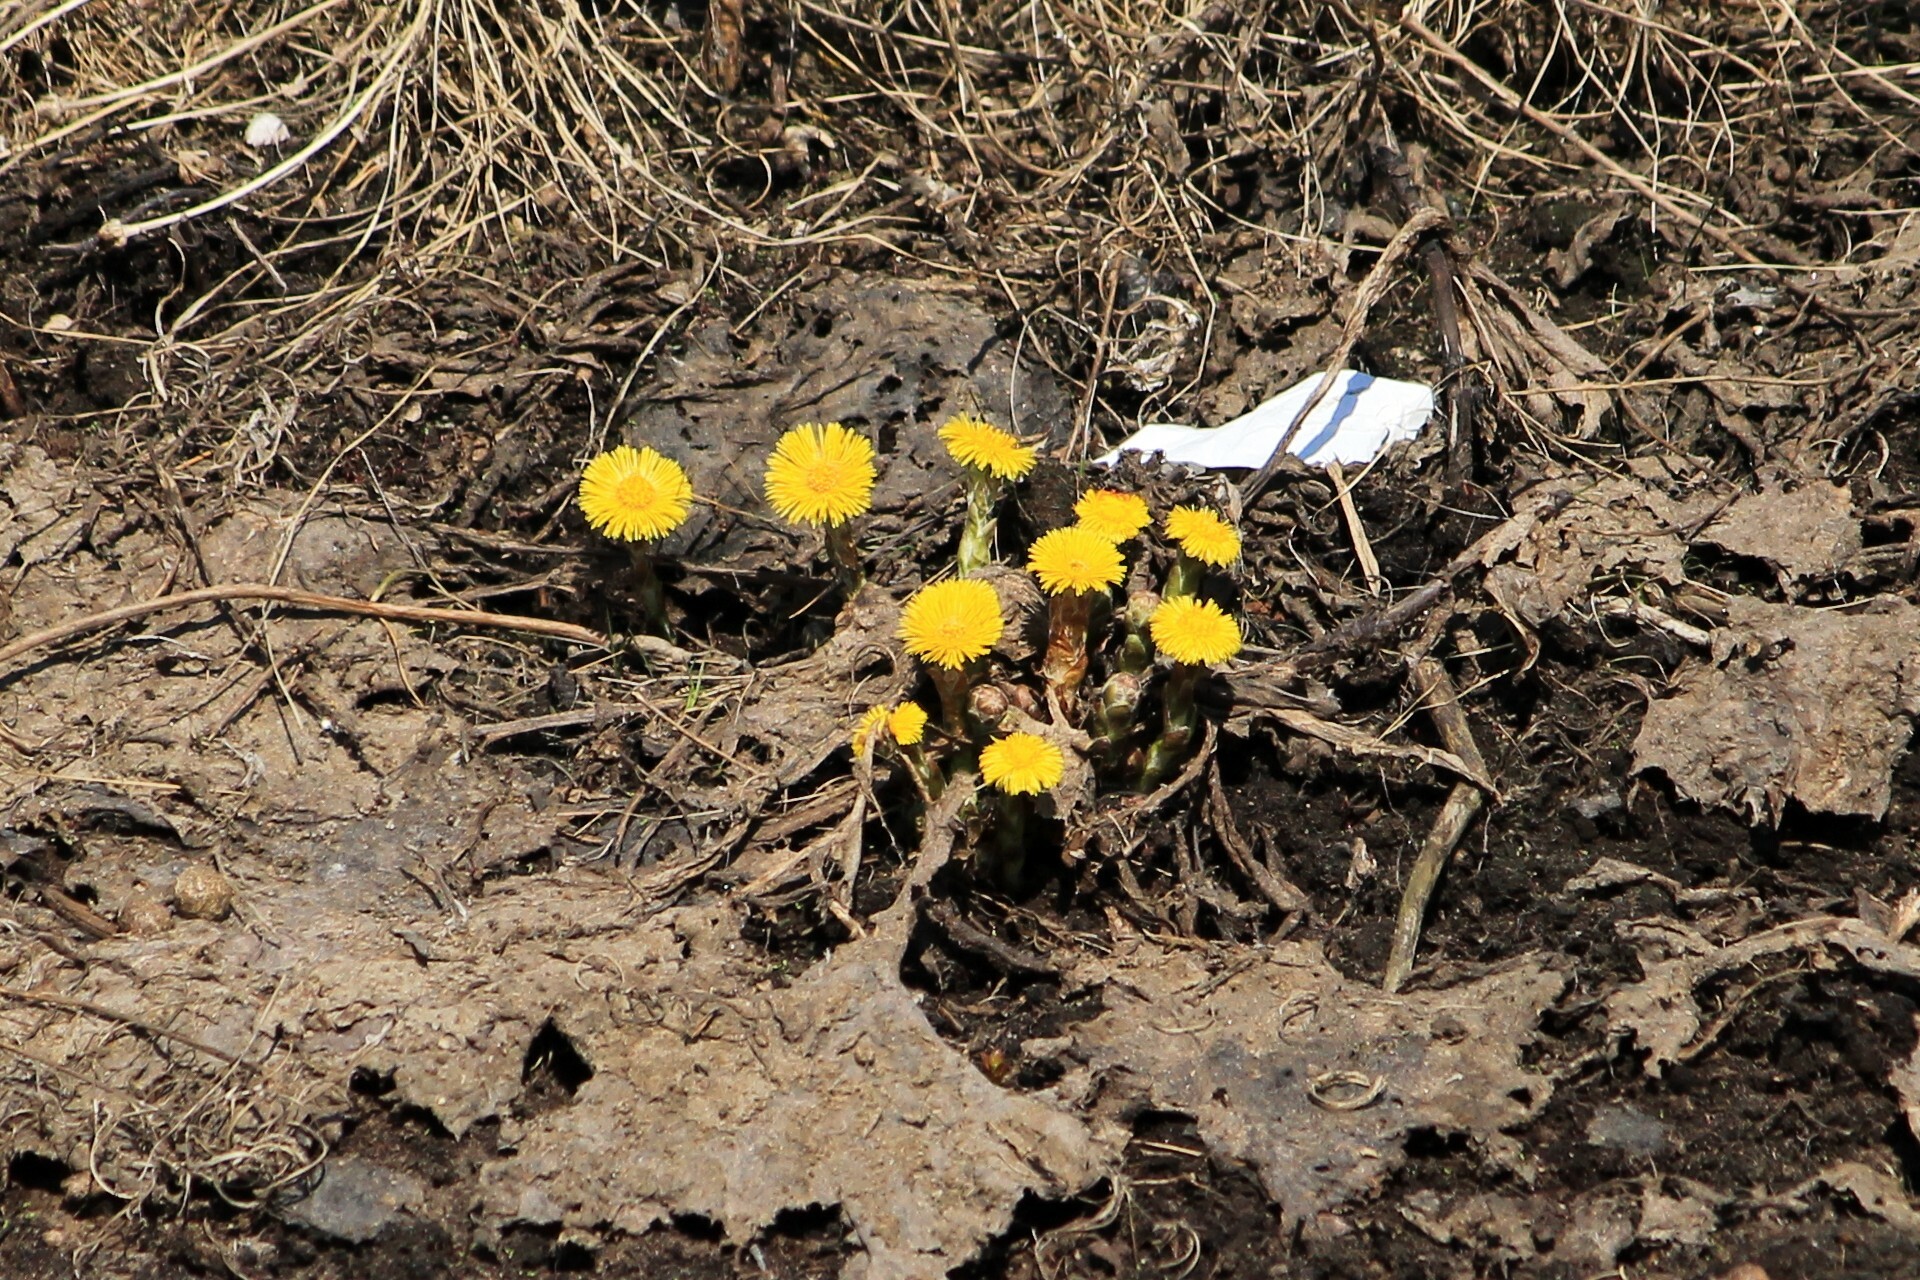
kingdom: Plantae
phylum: Tracheophyta
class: Magnoliopsida
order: Asterales
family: Asteraceae
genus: Tussilago
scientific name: Tussilago farfara
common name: Coltsfoot
